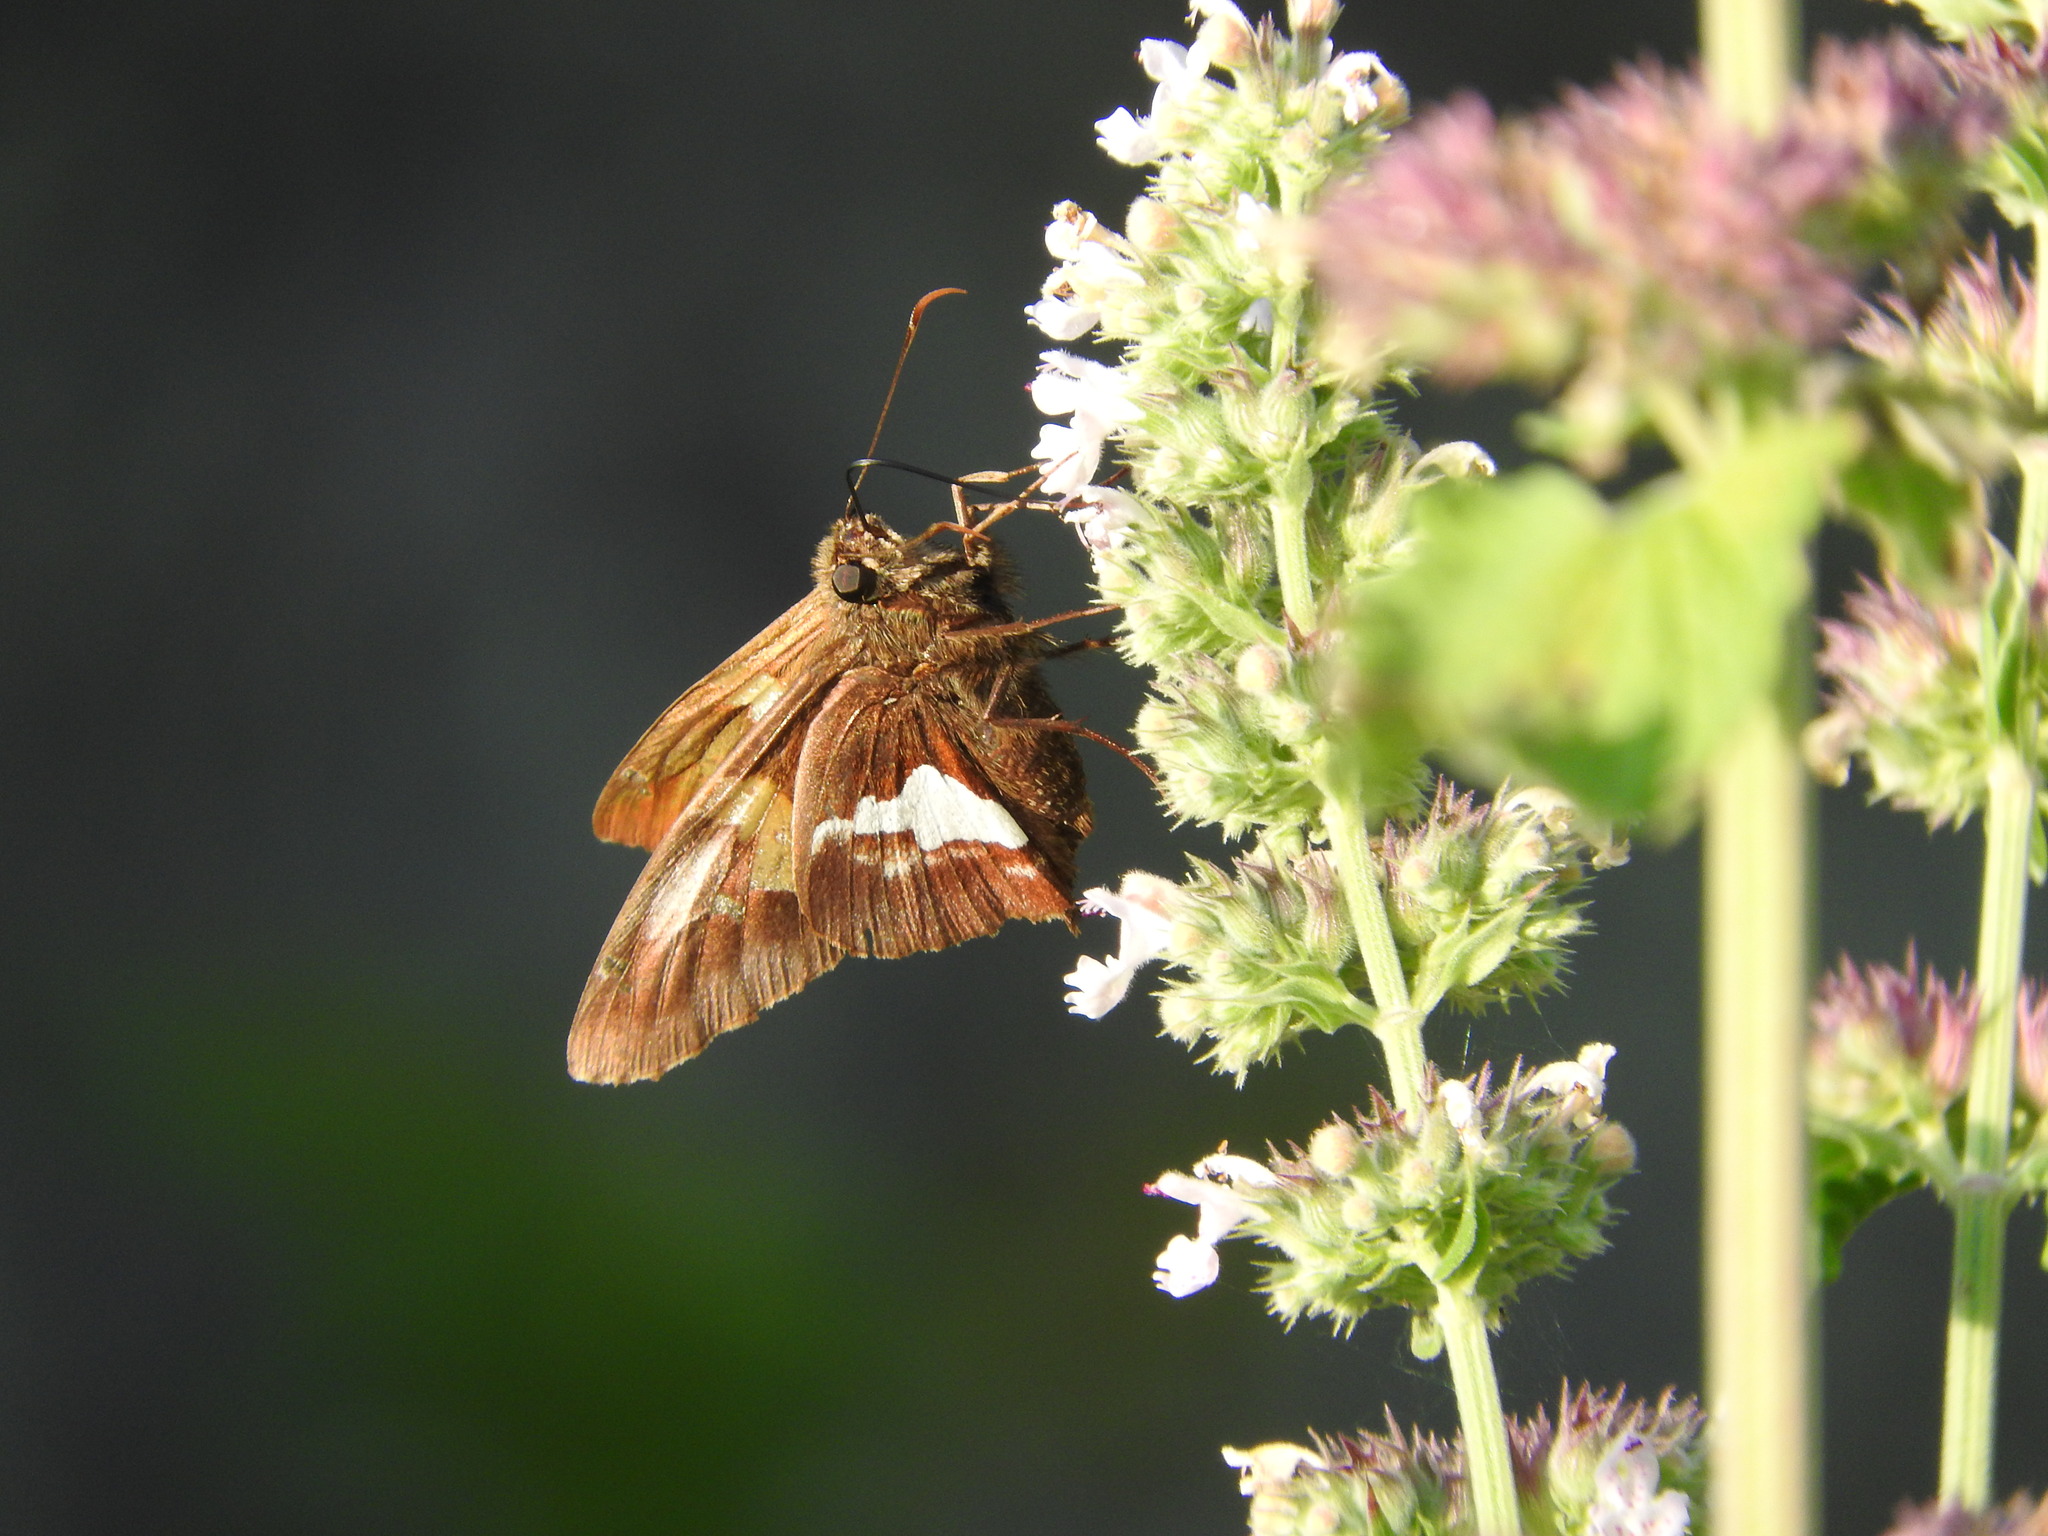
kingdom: Animalia
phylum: Arthropoda
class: Insecta
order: Lepidoptera
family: Hesperiidae
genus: Epargyreus
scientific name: Epargyreus clarus
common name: Silver-spotted skipper
